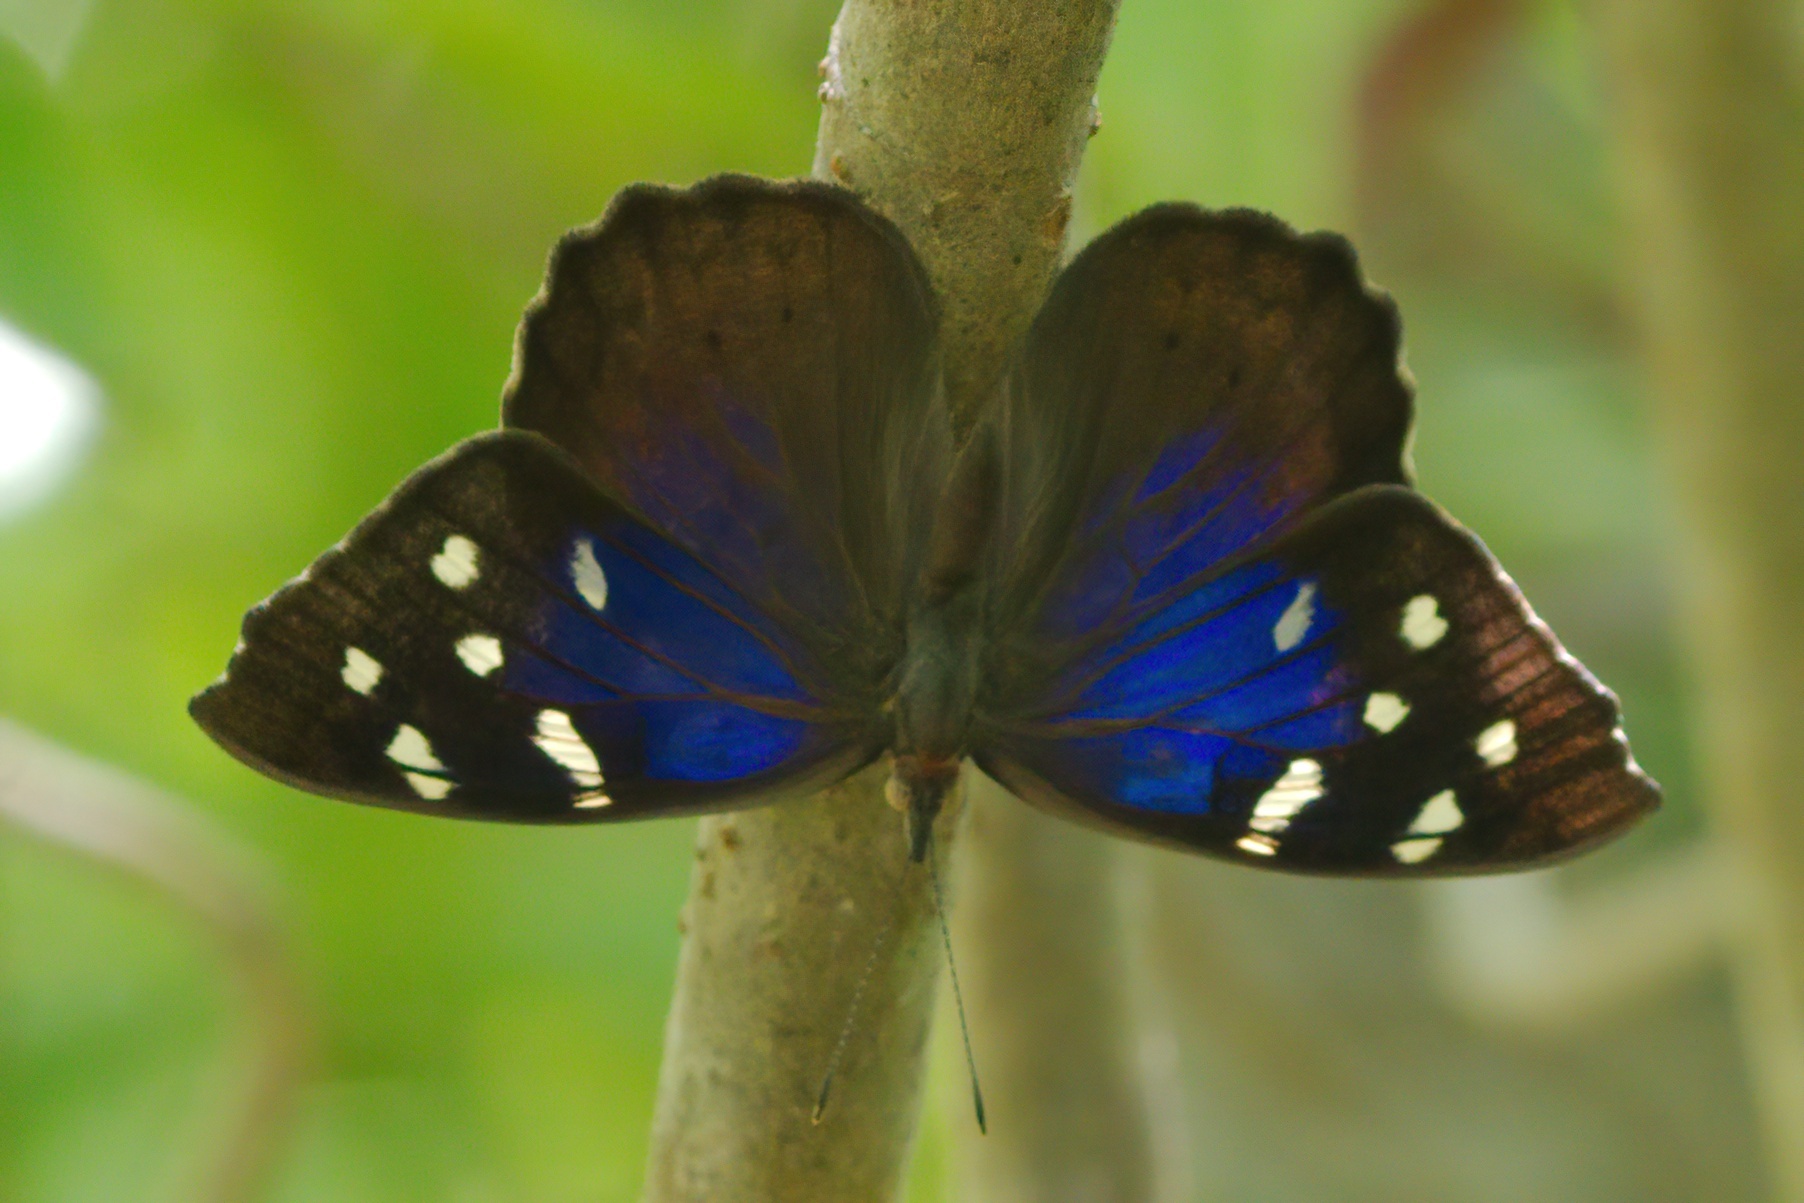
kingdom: Animalia
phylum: Arthropoda
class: Insecta
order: Lepidoptera
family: Nymphalidae
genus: Eunica
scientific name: Eunica tatila
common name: Florida purplewing
